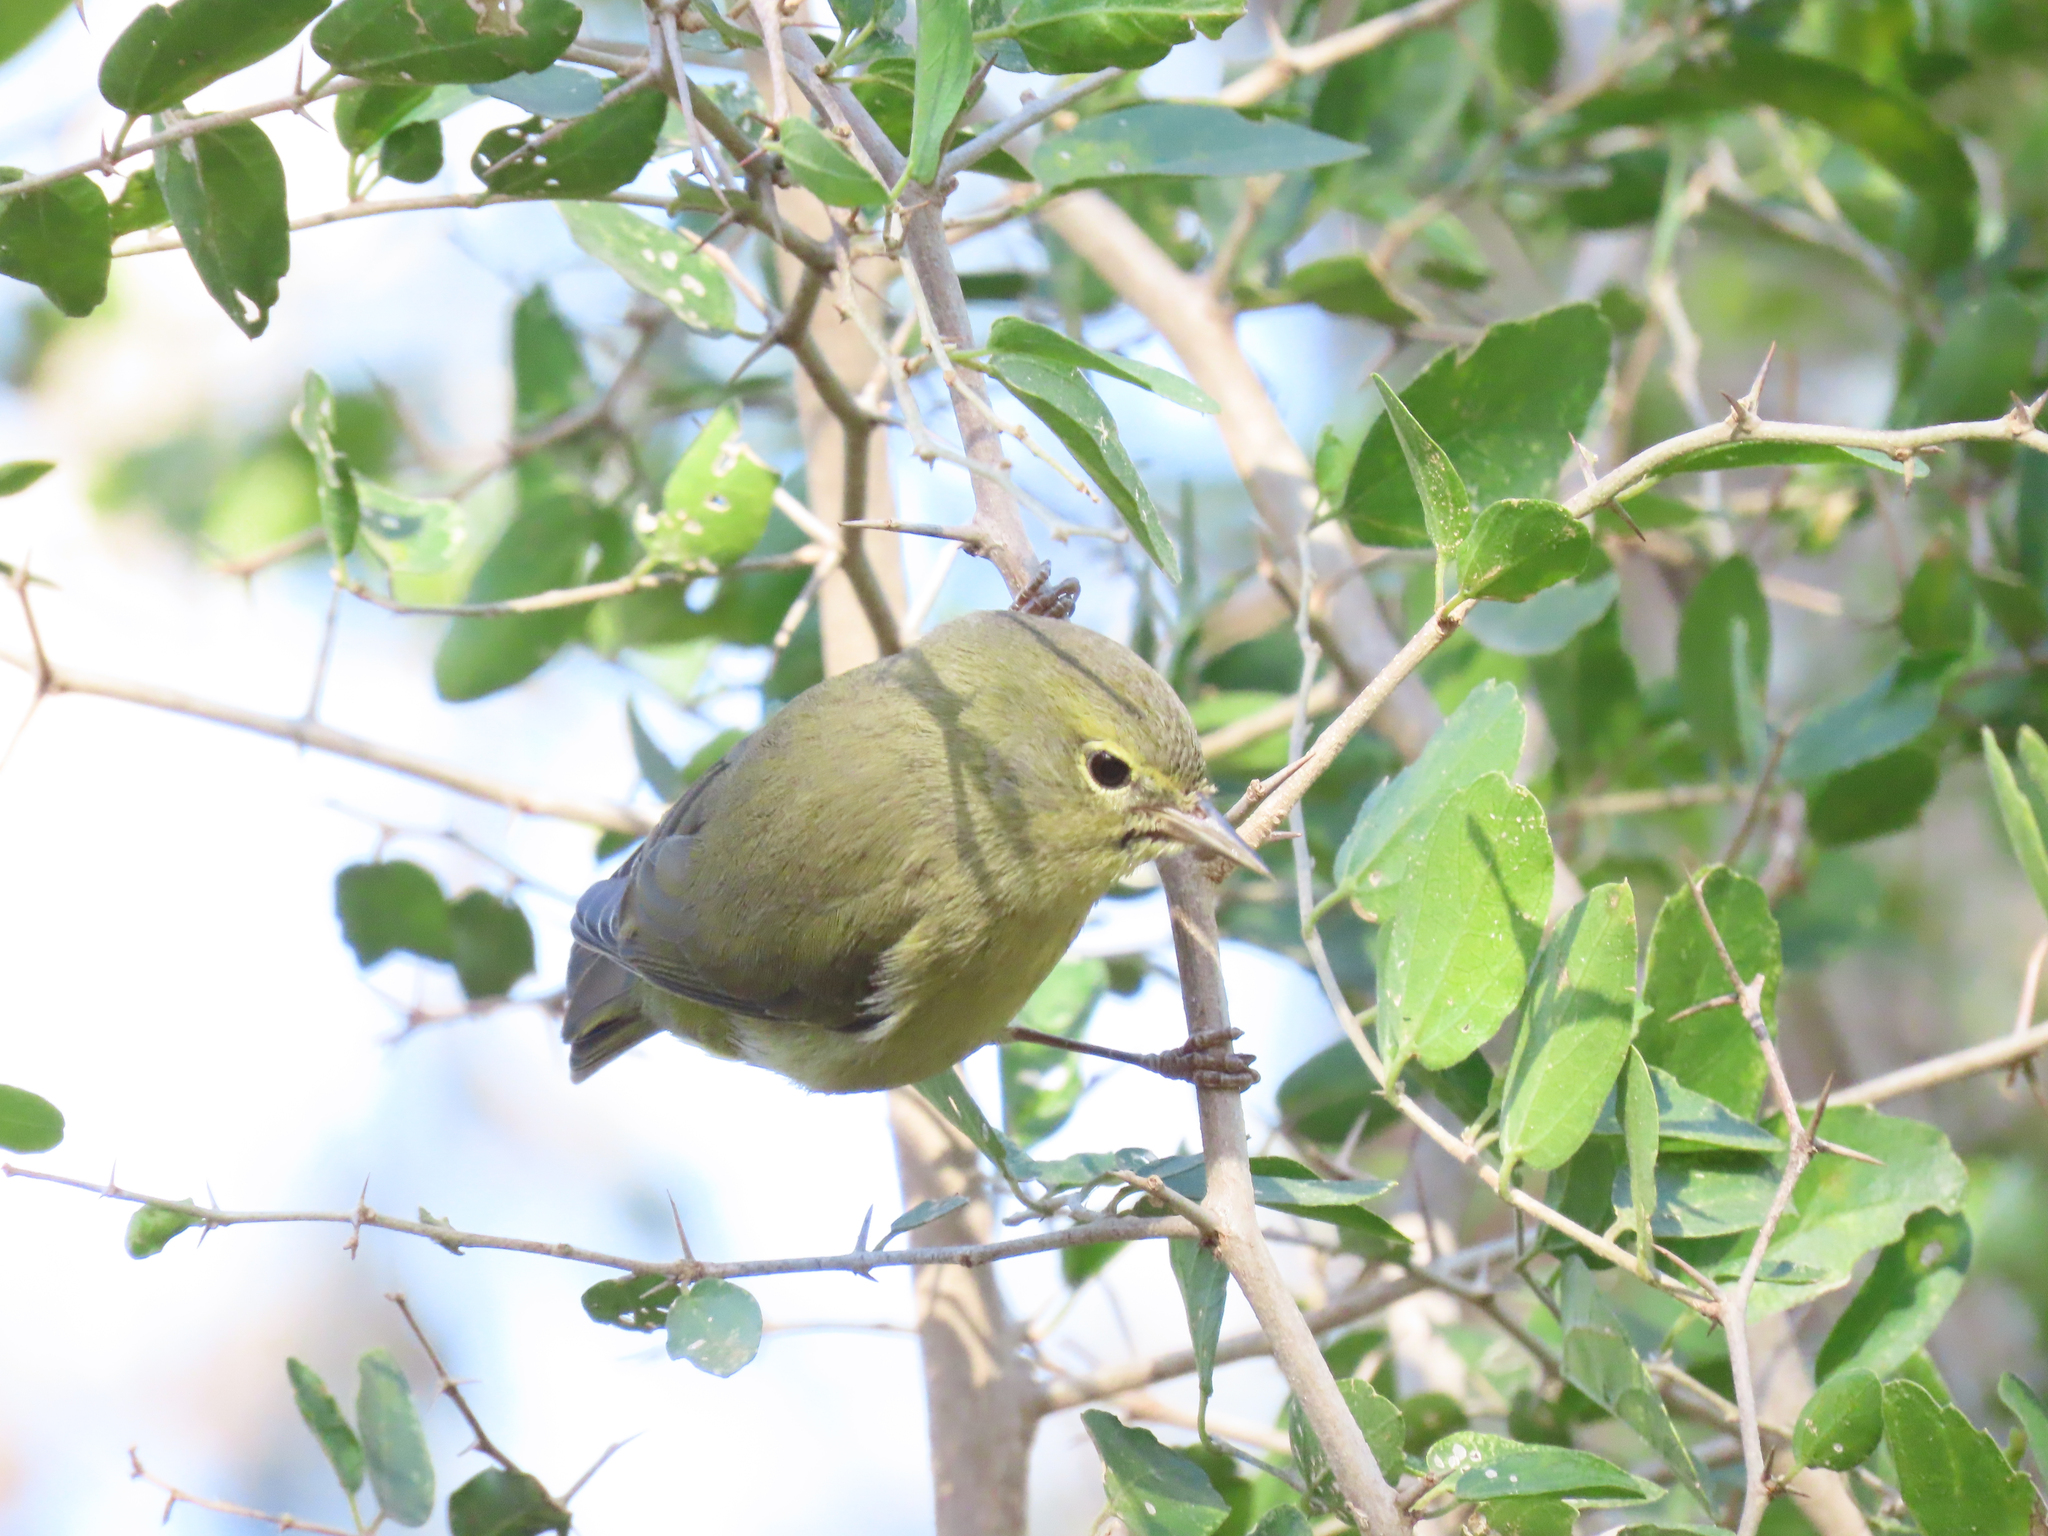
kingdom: Animalia
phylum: Chordata
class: Aves
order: Passeriformes
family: Parulidae
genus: Leiothlypis
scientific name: Leiothlypis celata
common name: Orange-crowned warbler
